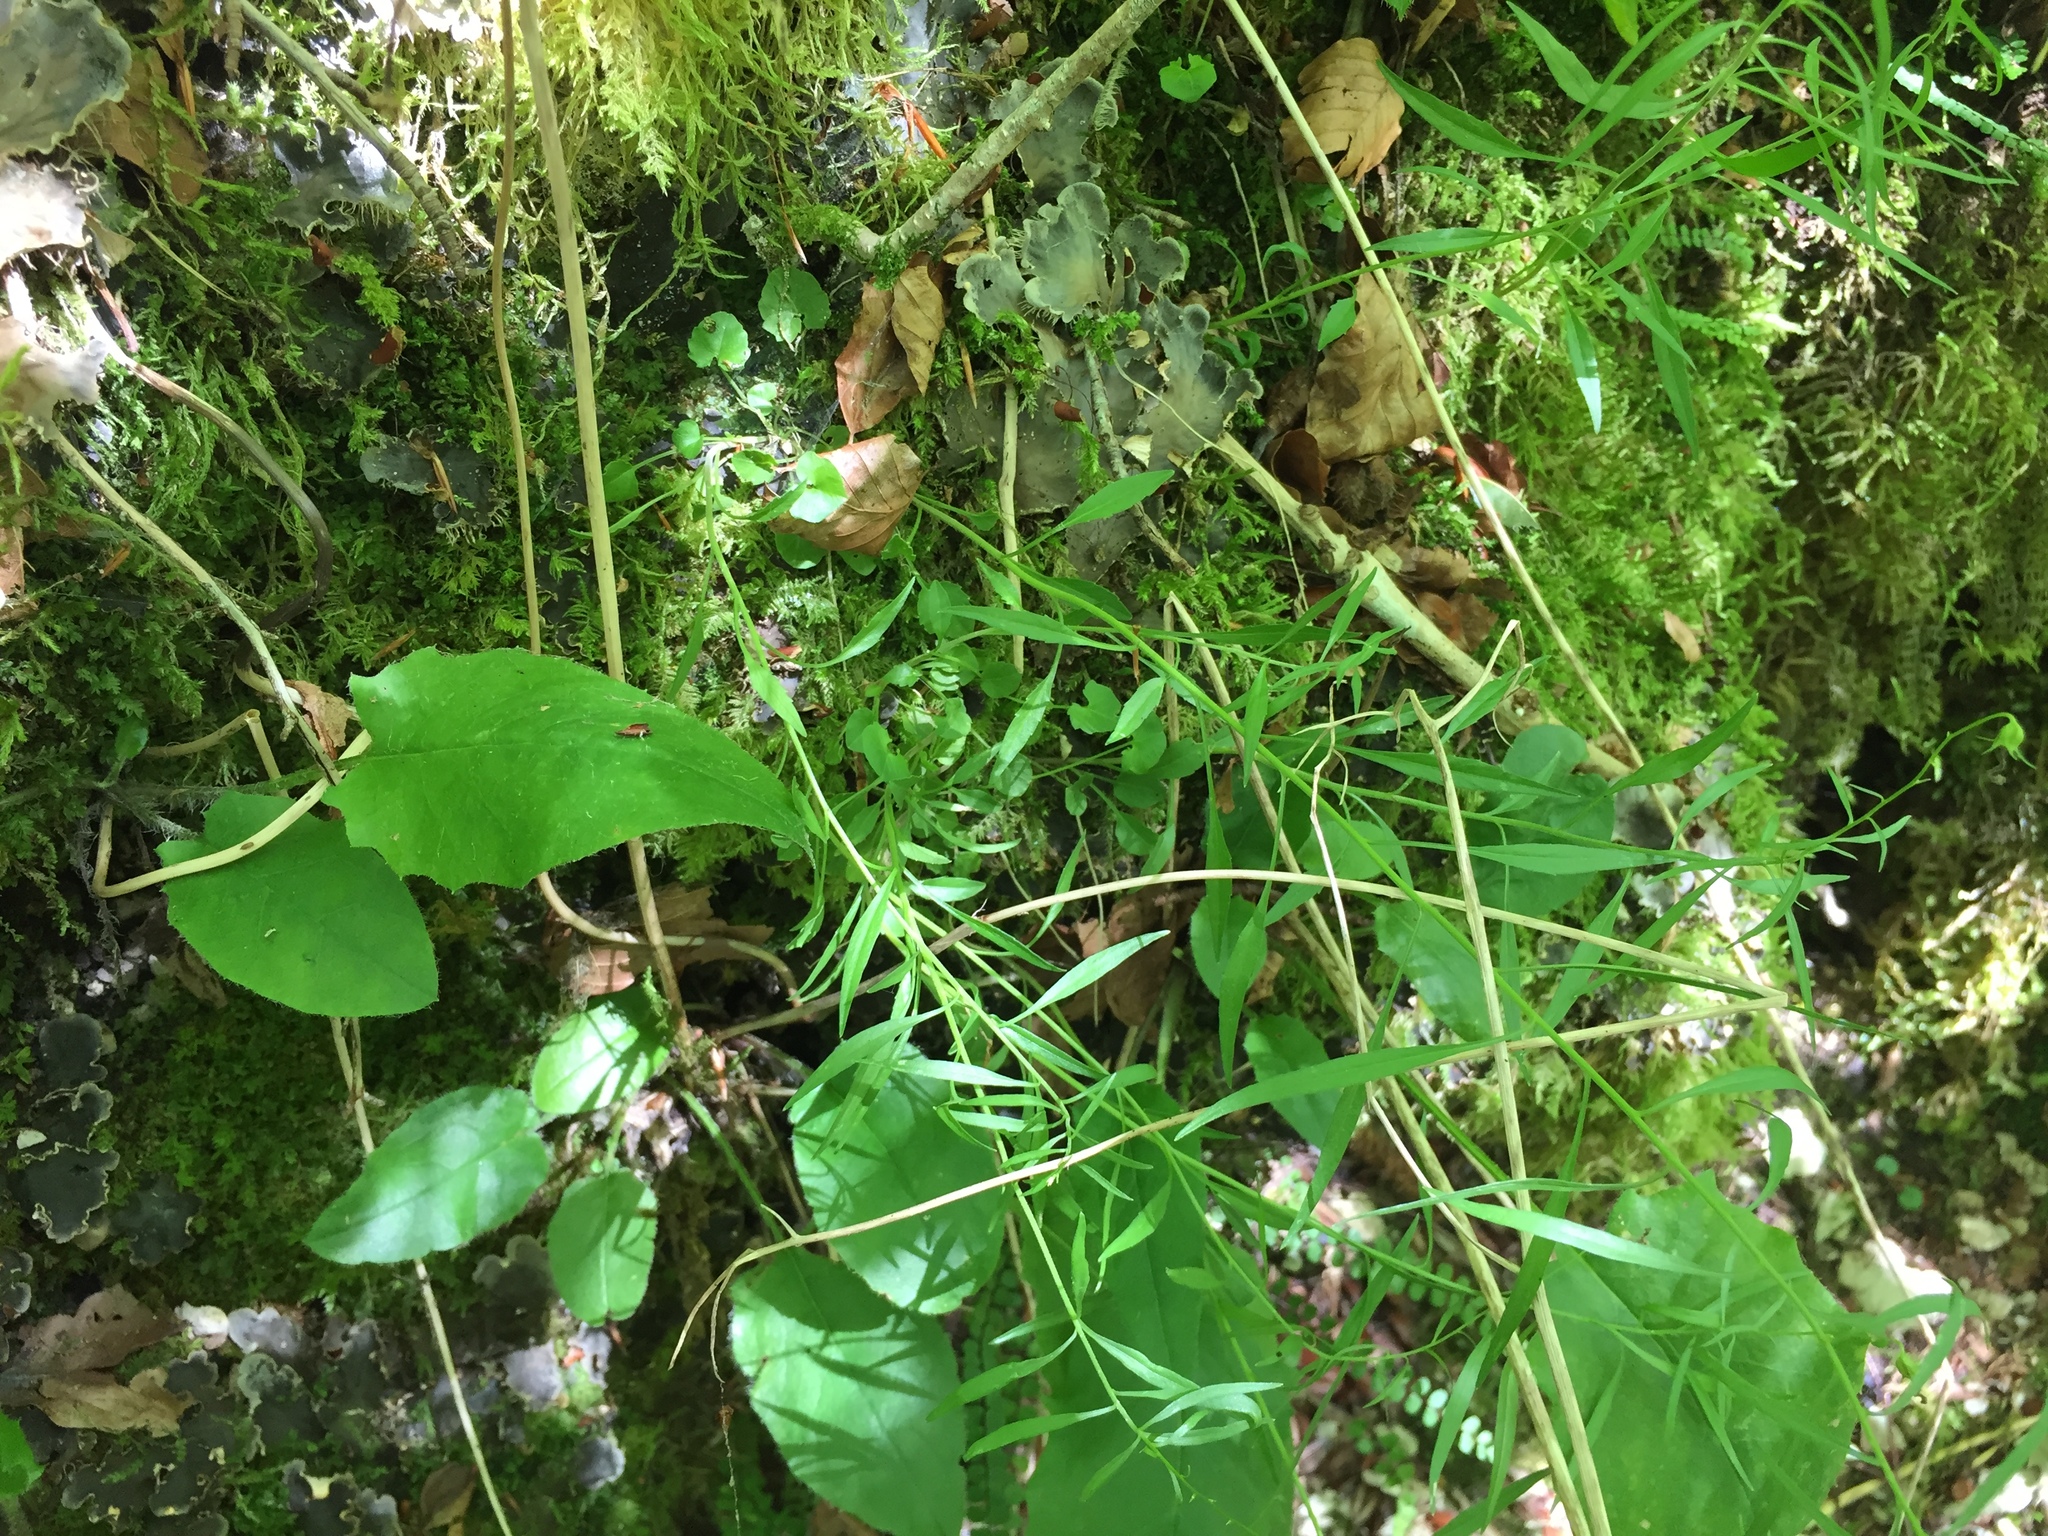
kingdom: Plantae
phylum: Tracheophyta
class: Magnoliopsida
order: Asterales
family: Campanulaceae
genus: Campanula
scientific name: Campanula rotundifolia
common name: Harebell
